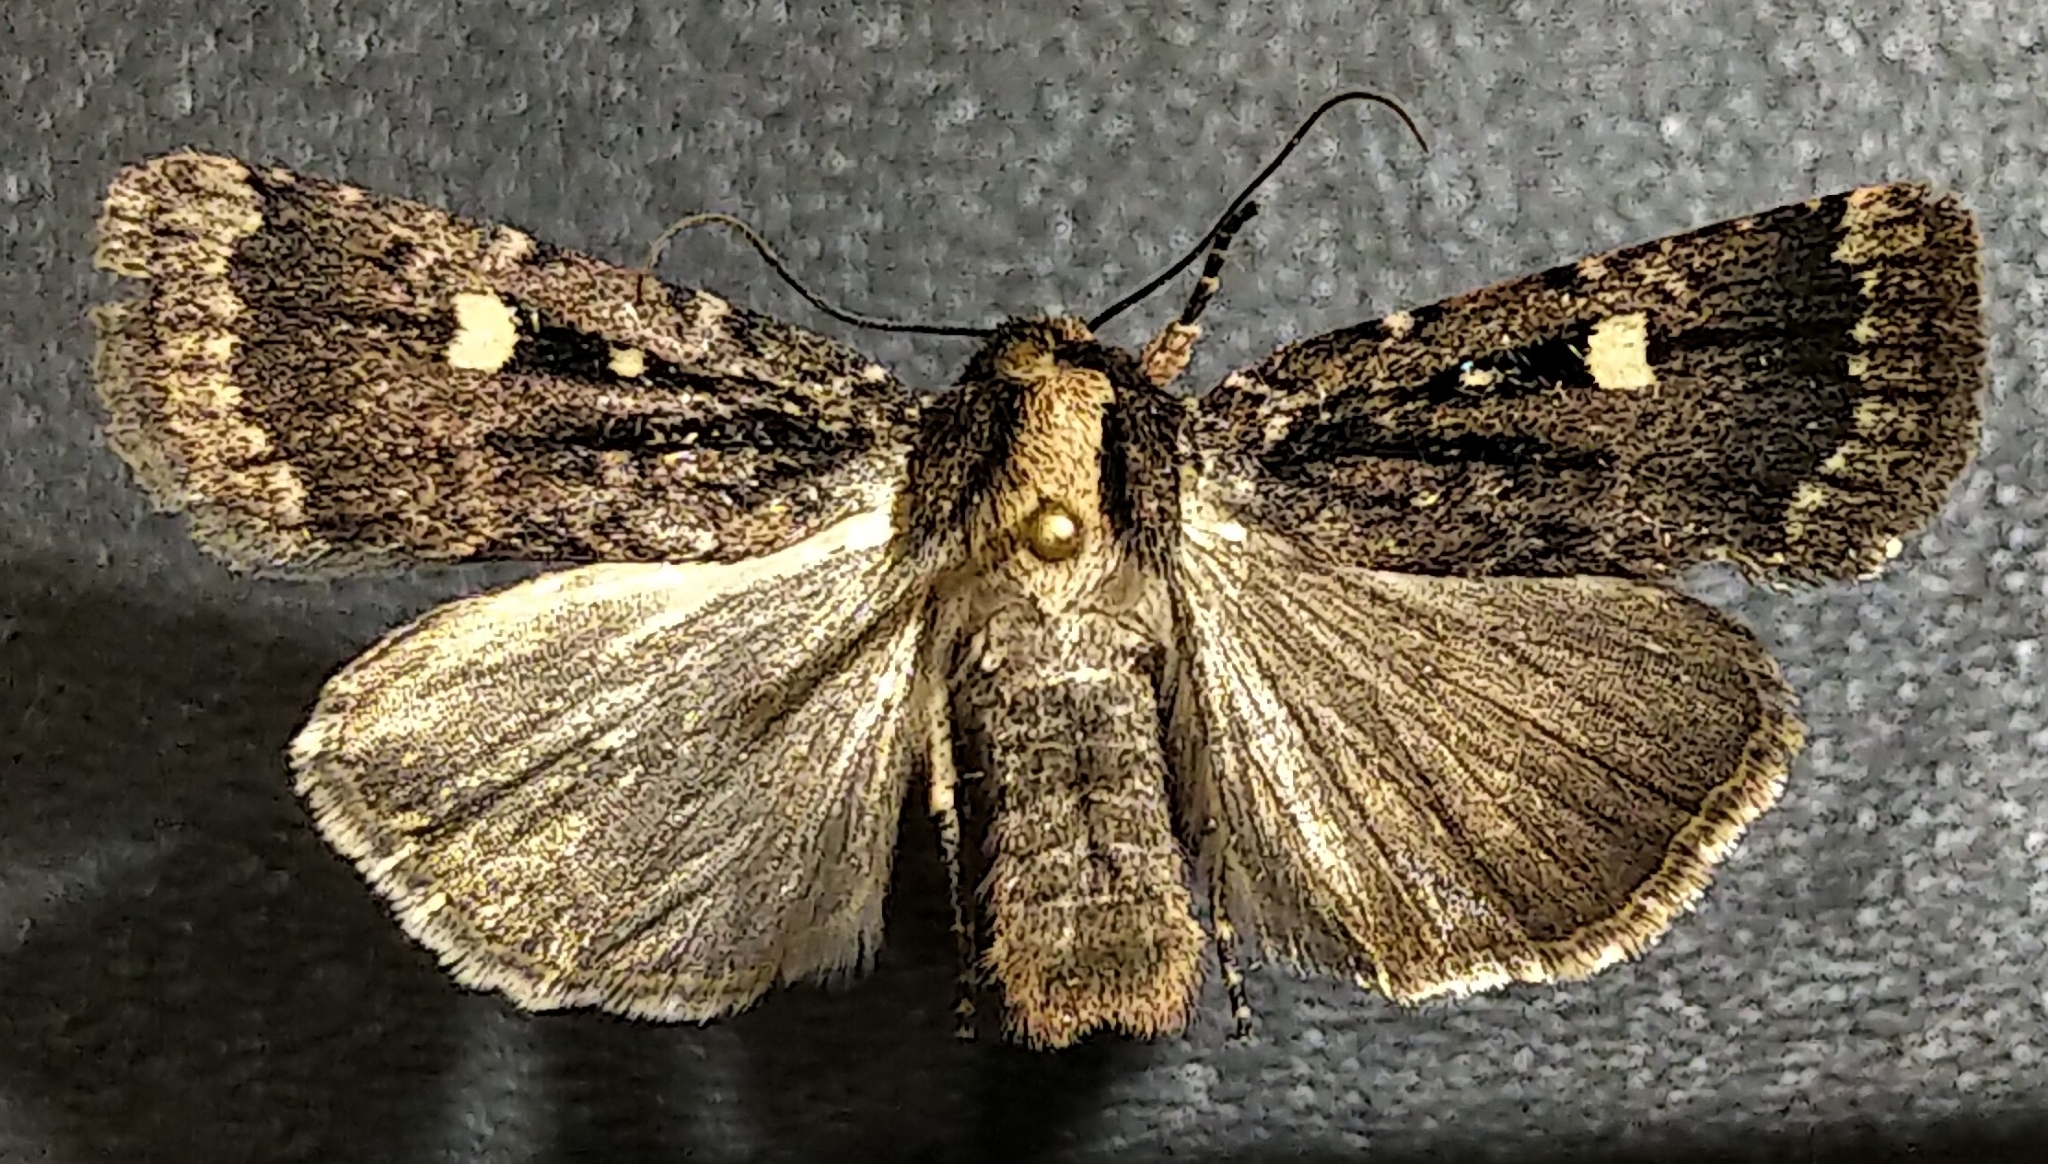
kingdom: Animalia
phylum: Arthropoda
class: Insecta
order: Lepidoptera
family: Noctuidae
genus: Abagrotis
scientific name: Abagrotis mirabilis
